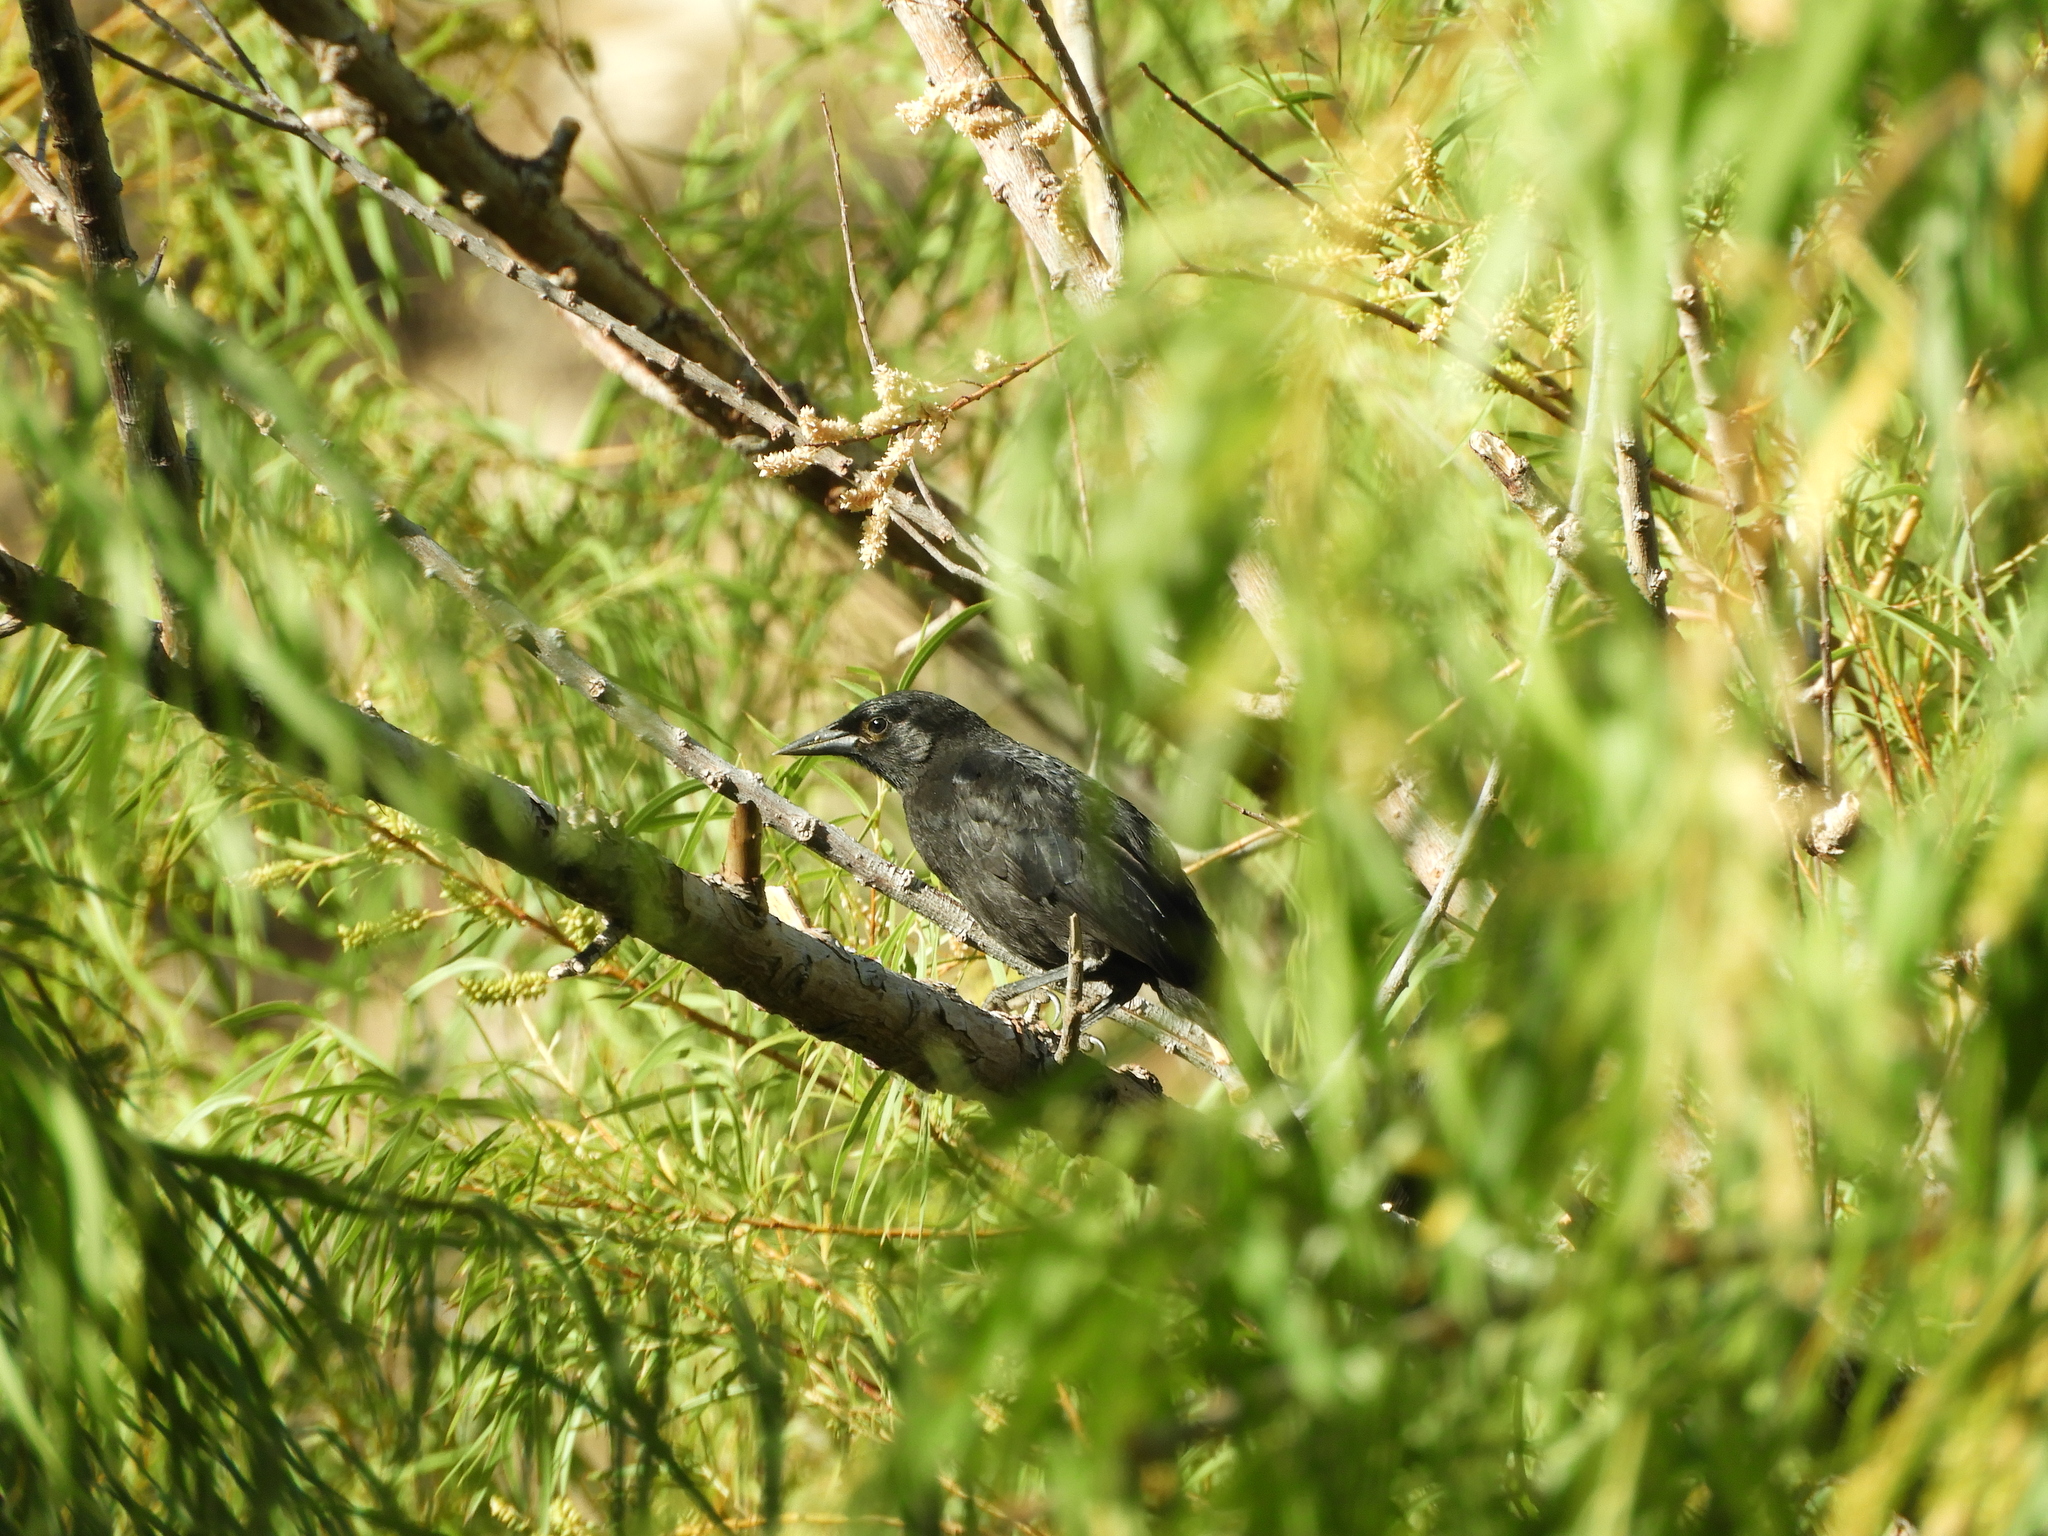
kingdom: Animalia
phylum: Chordata
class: Aves
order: Passeriformes
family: Icteridae
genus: Curaeus
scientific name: Curaeus curaeus
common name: Austral blackbird
